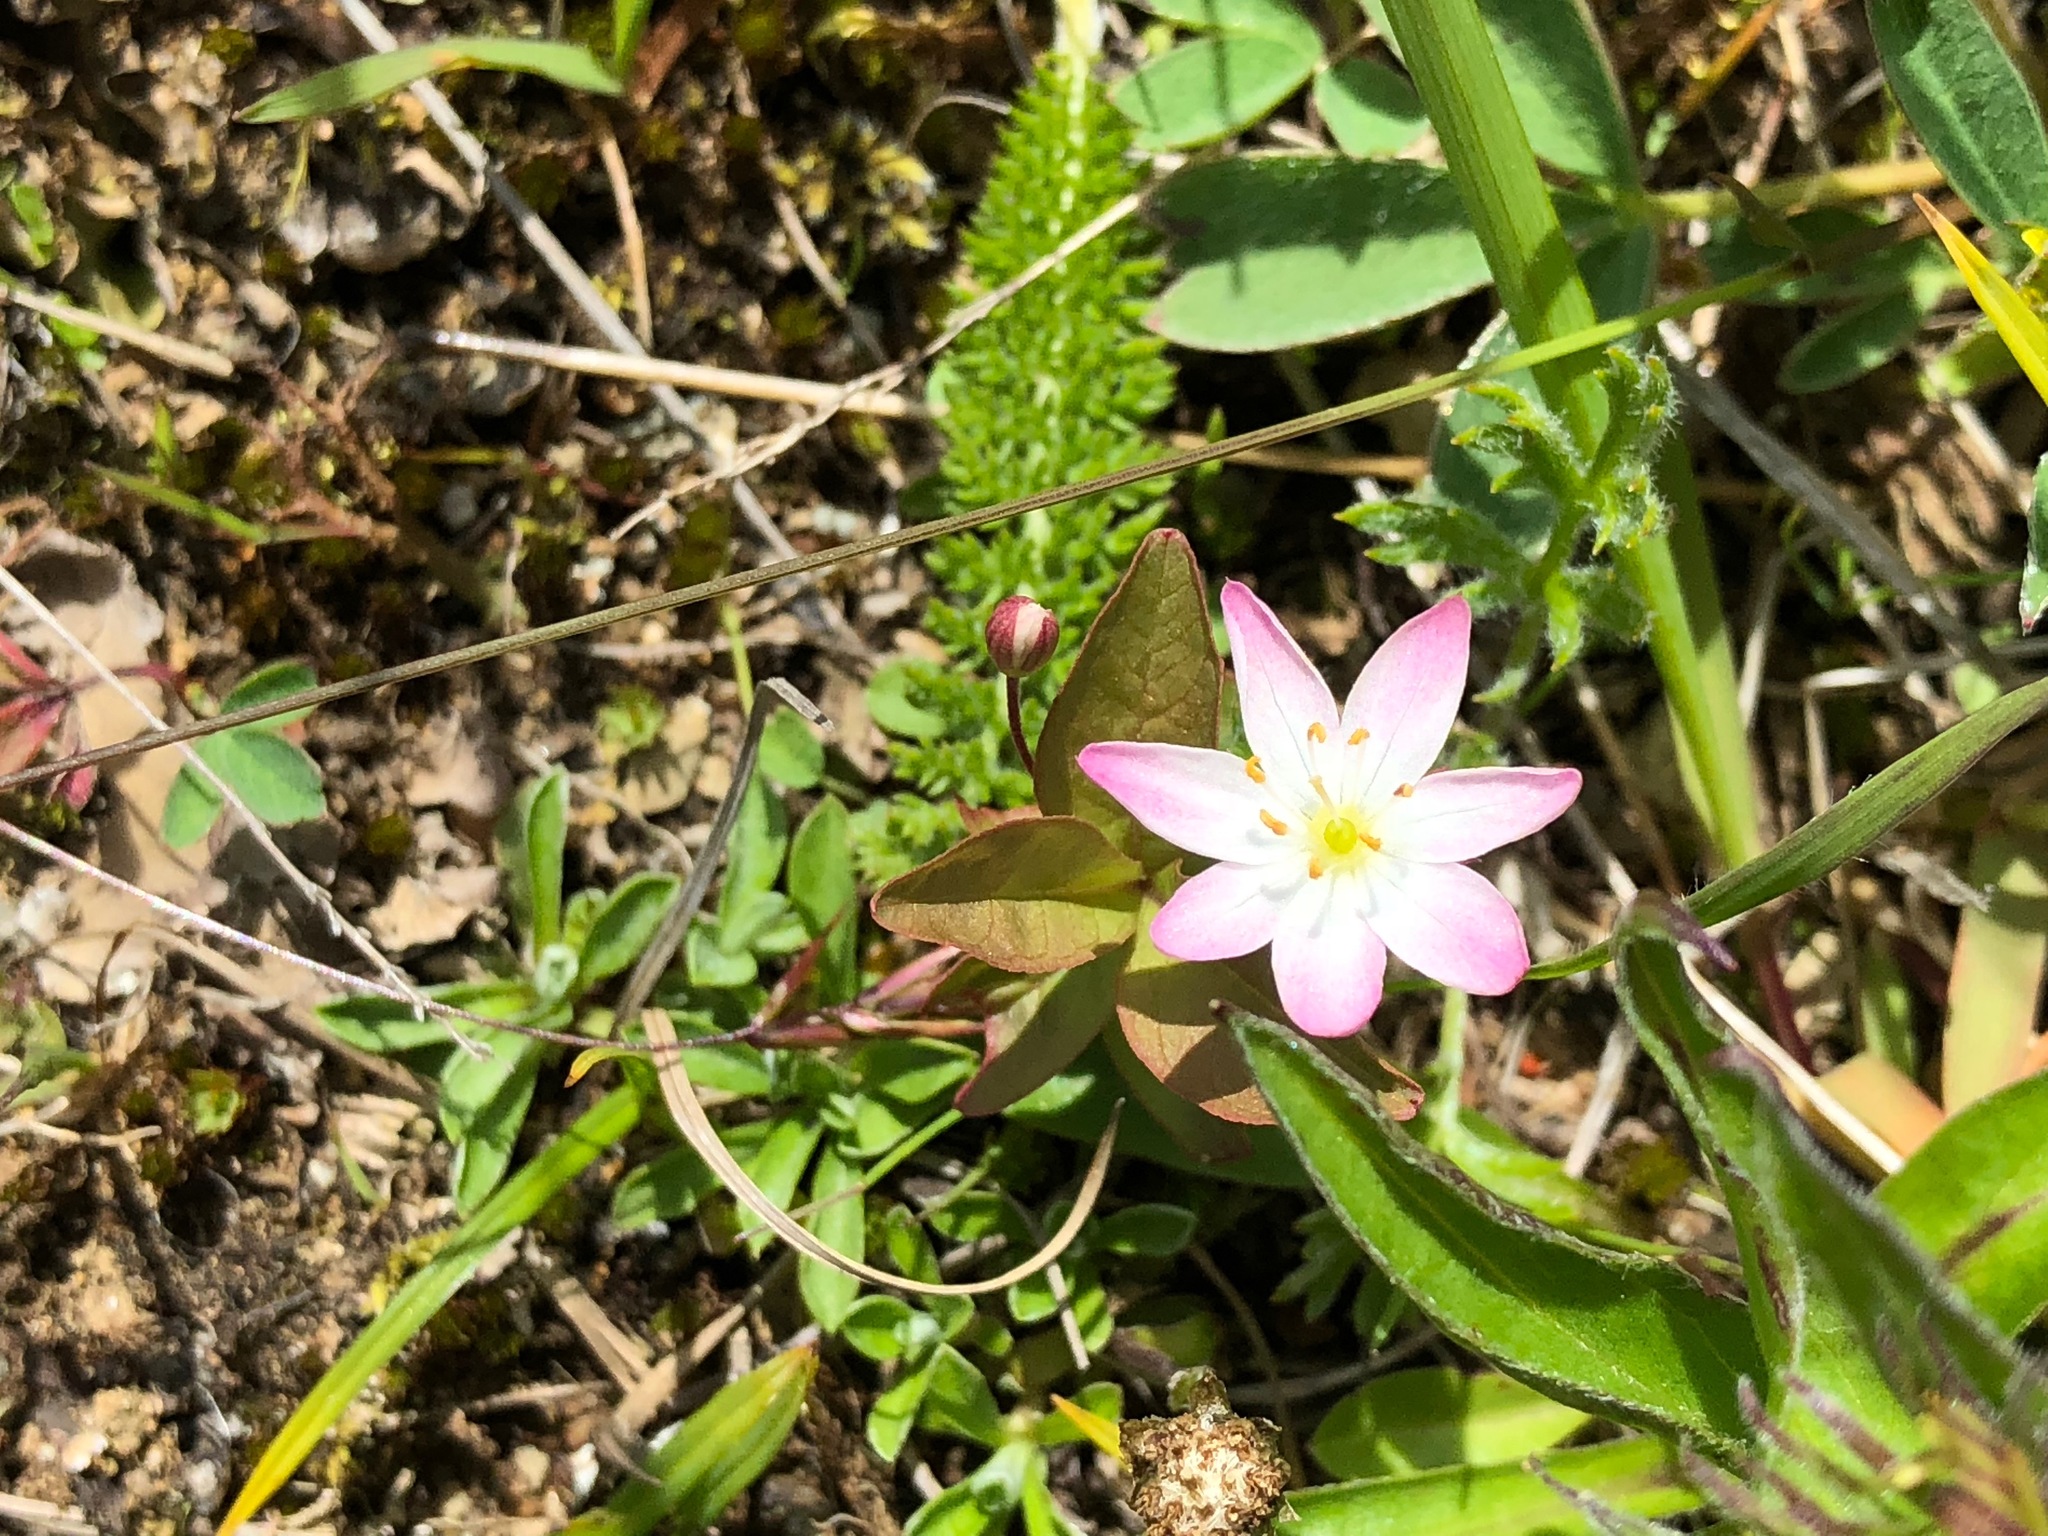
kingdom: Plantae
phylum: Tracheophyta
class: Magnoliopsida
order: Ericales
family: Primulaceae
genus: Lysimachia
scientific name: Lysimachia europaea
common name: Arctic starflower
